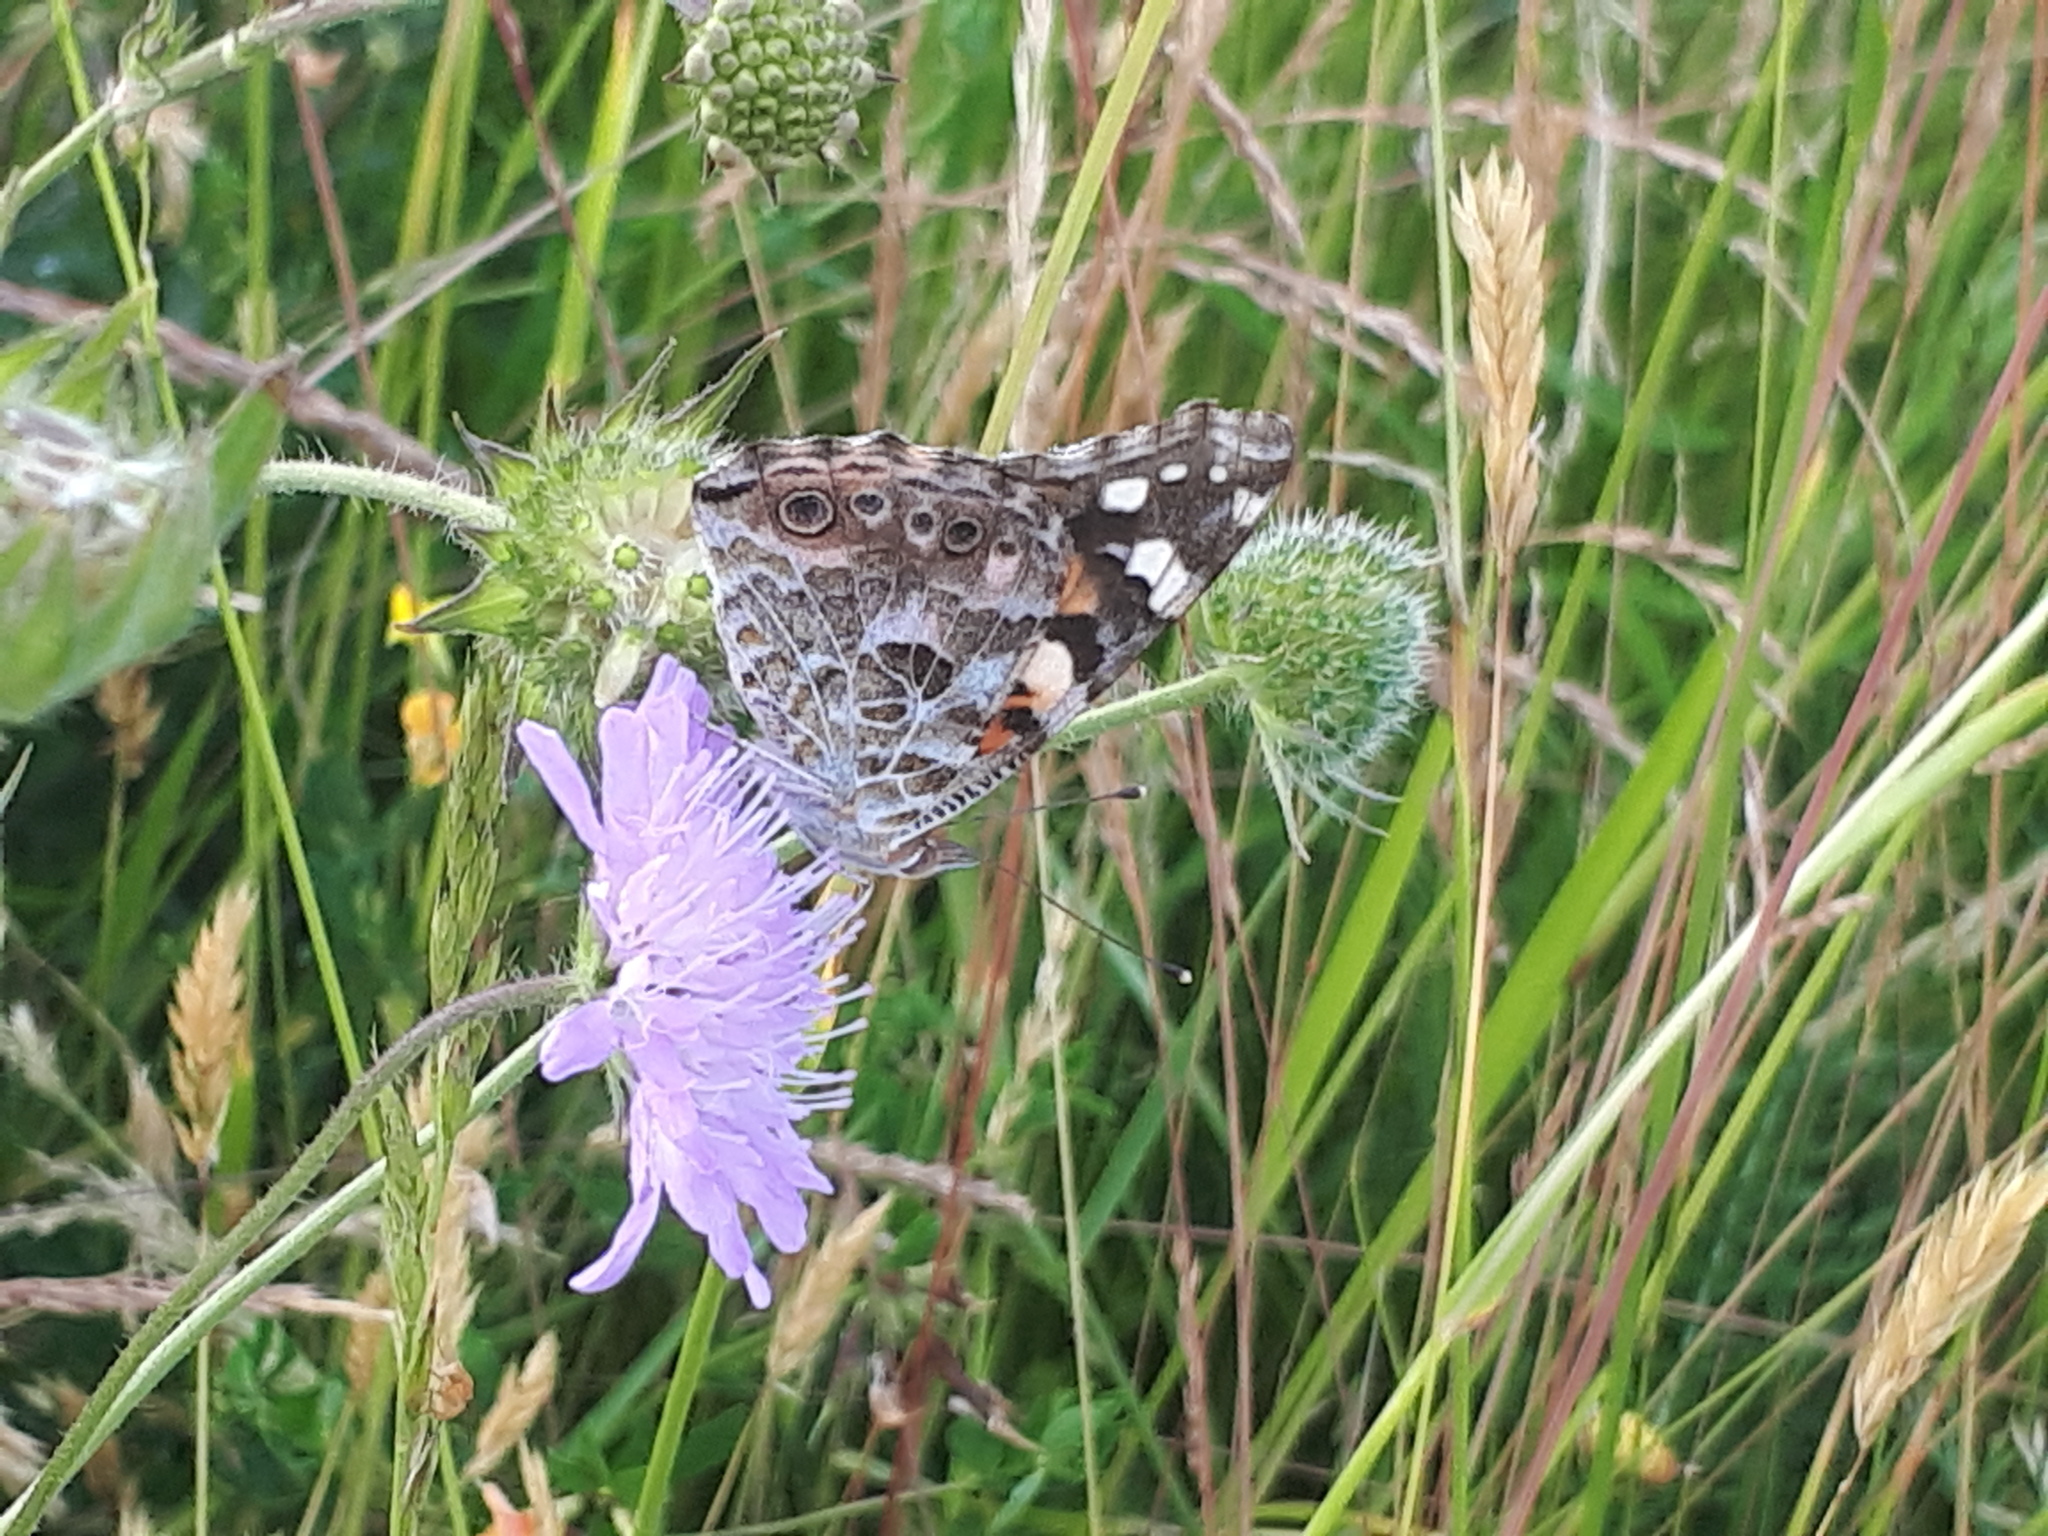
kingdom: Animalia
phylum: Arthropoda
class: Insecta
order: Lepidoptera
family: Nymphalidae
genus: Vanessa
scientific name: Vanessa cardui
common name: Painted lady
